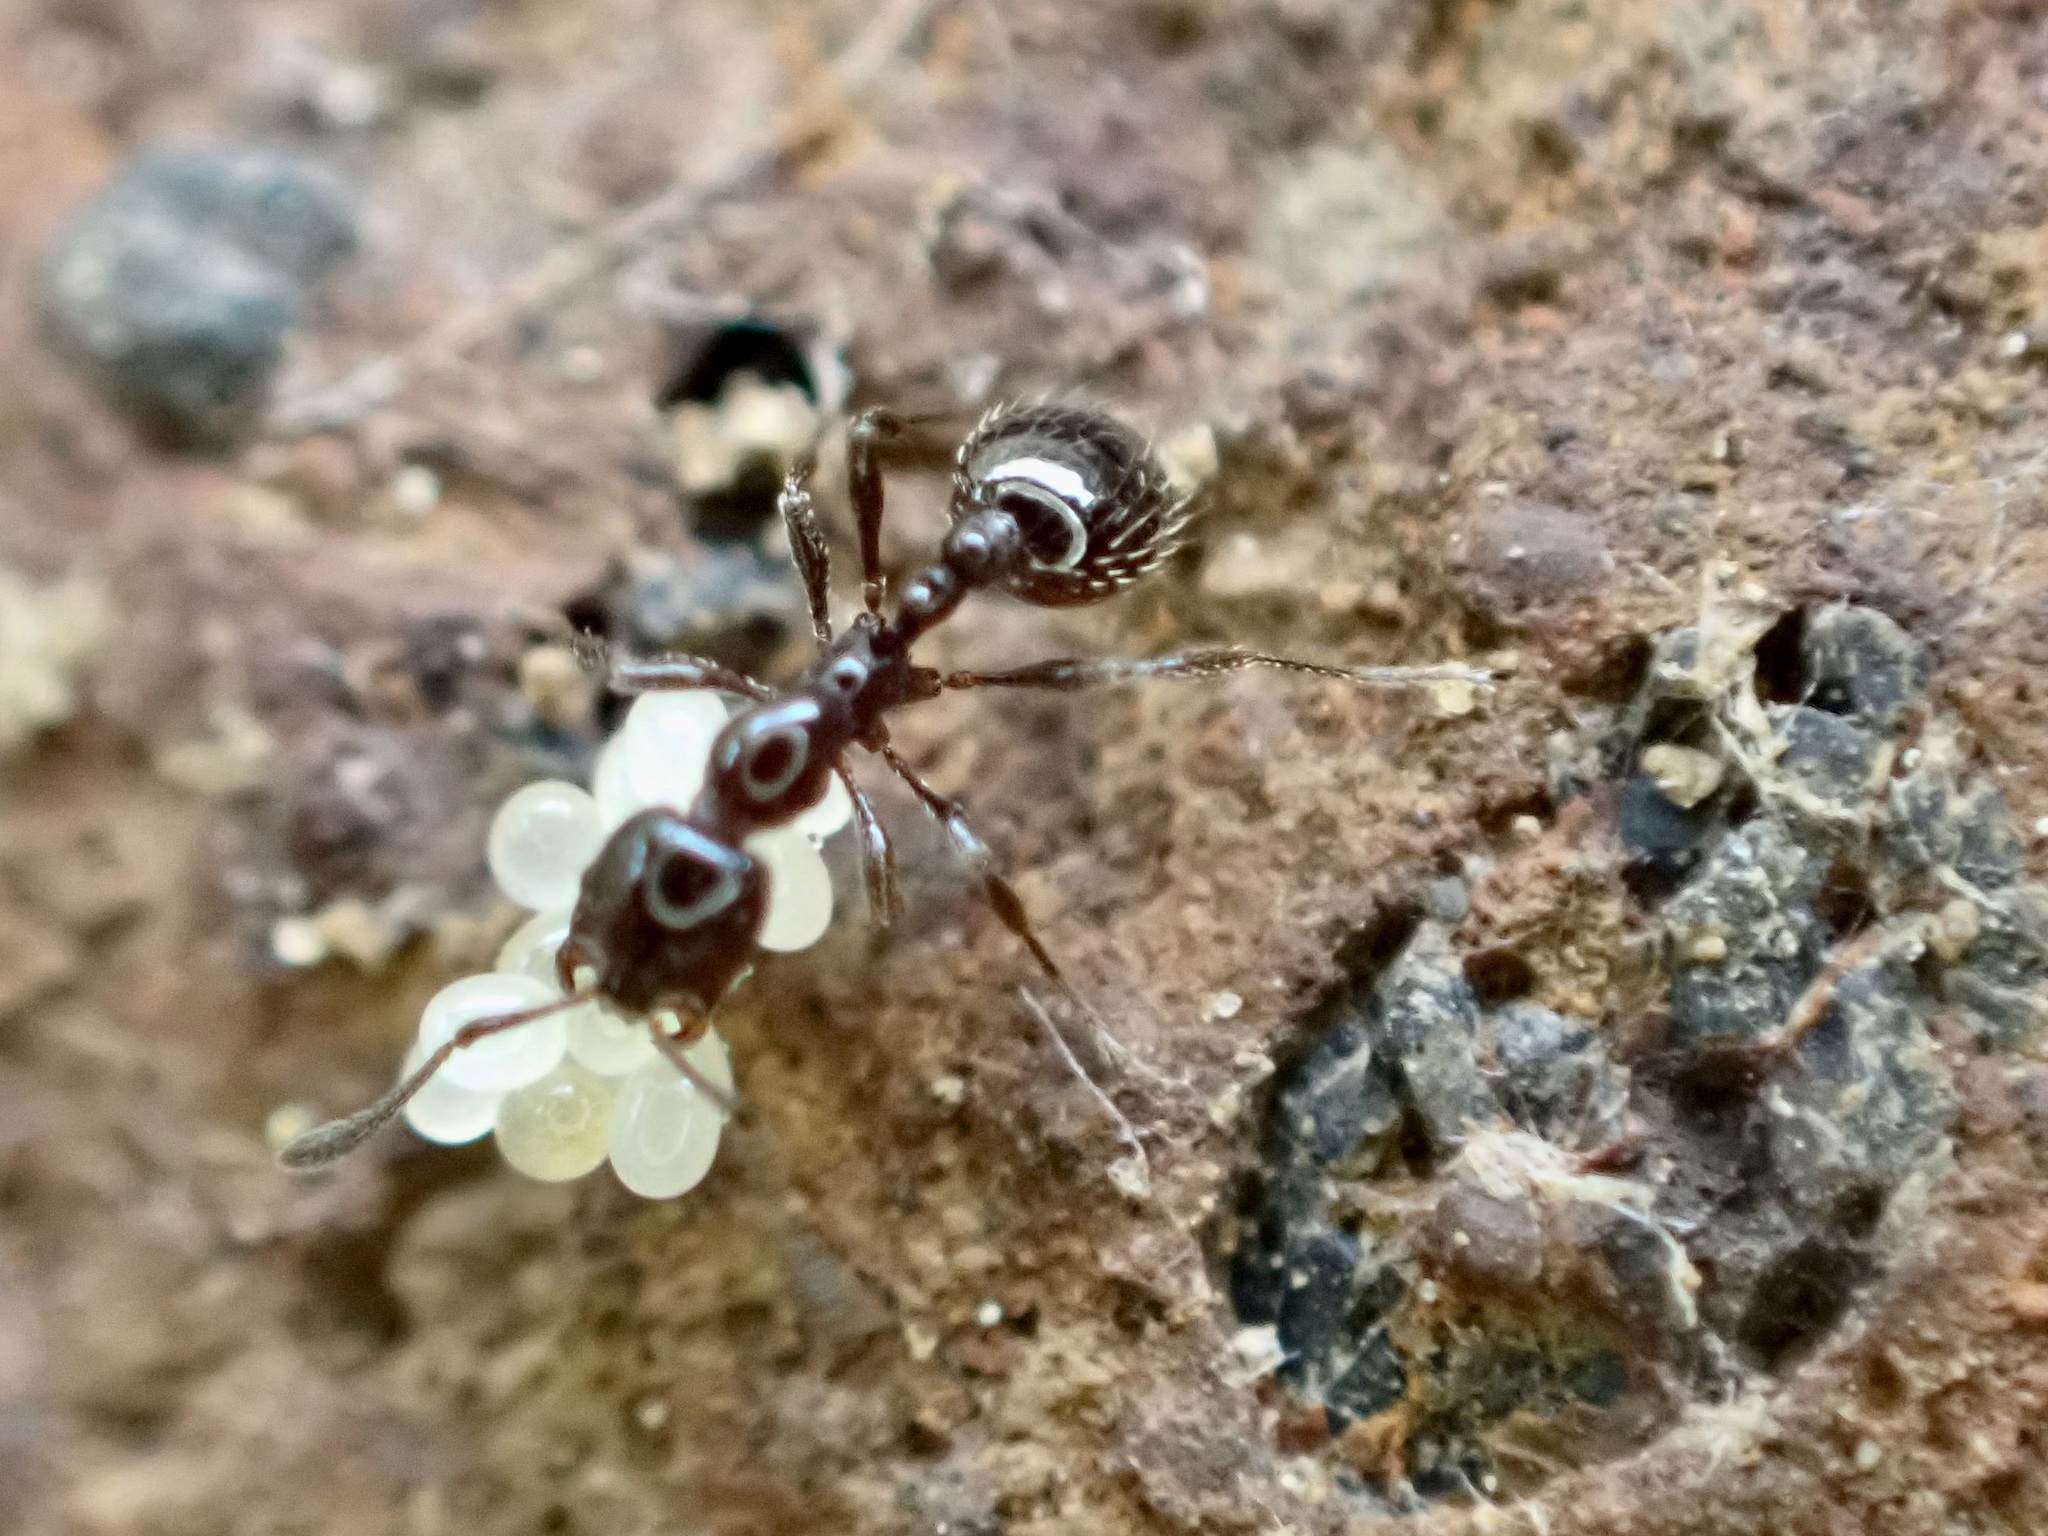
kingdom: Animalia
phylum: Arthropoda
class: Insecta
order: Hymenoptera
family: Formicidae
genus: Monomorium
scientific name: Monomorium antarcticum
